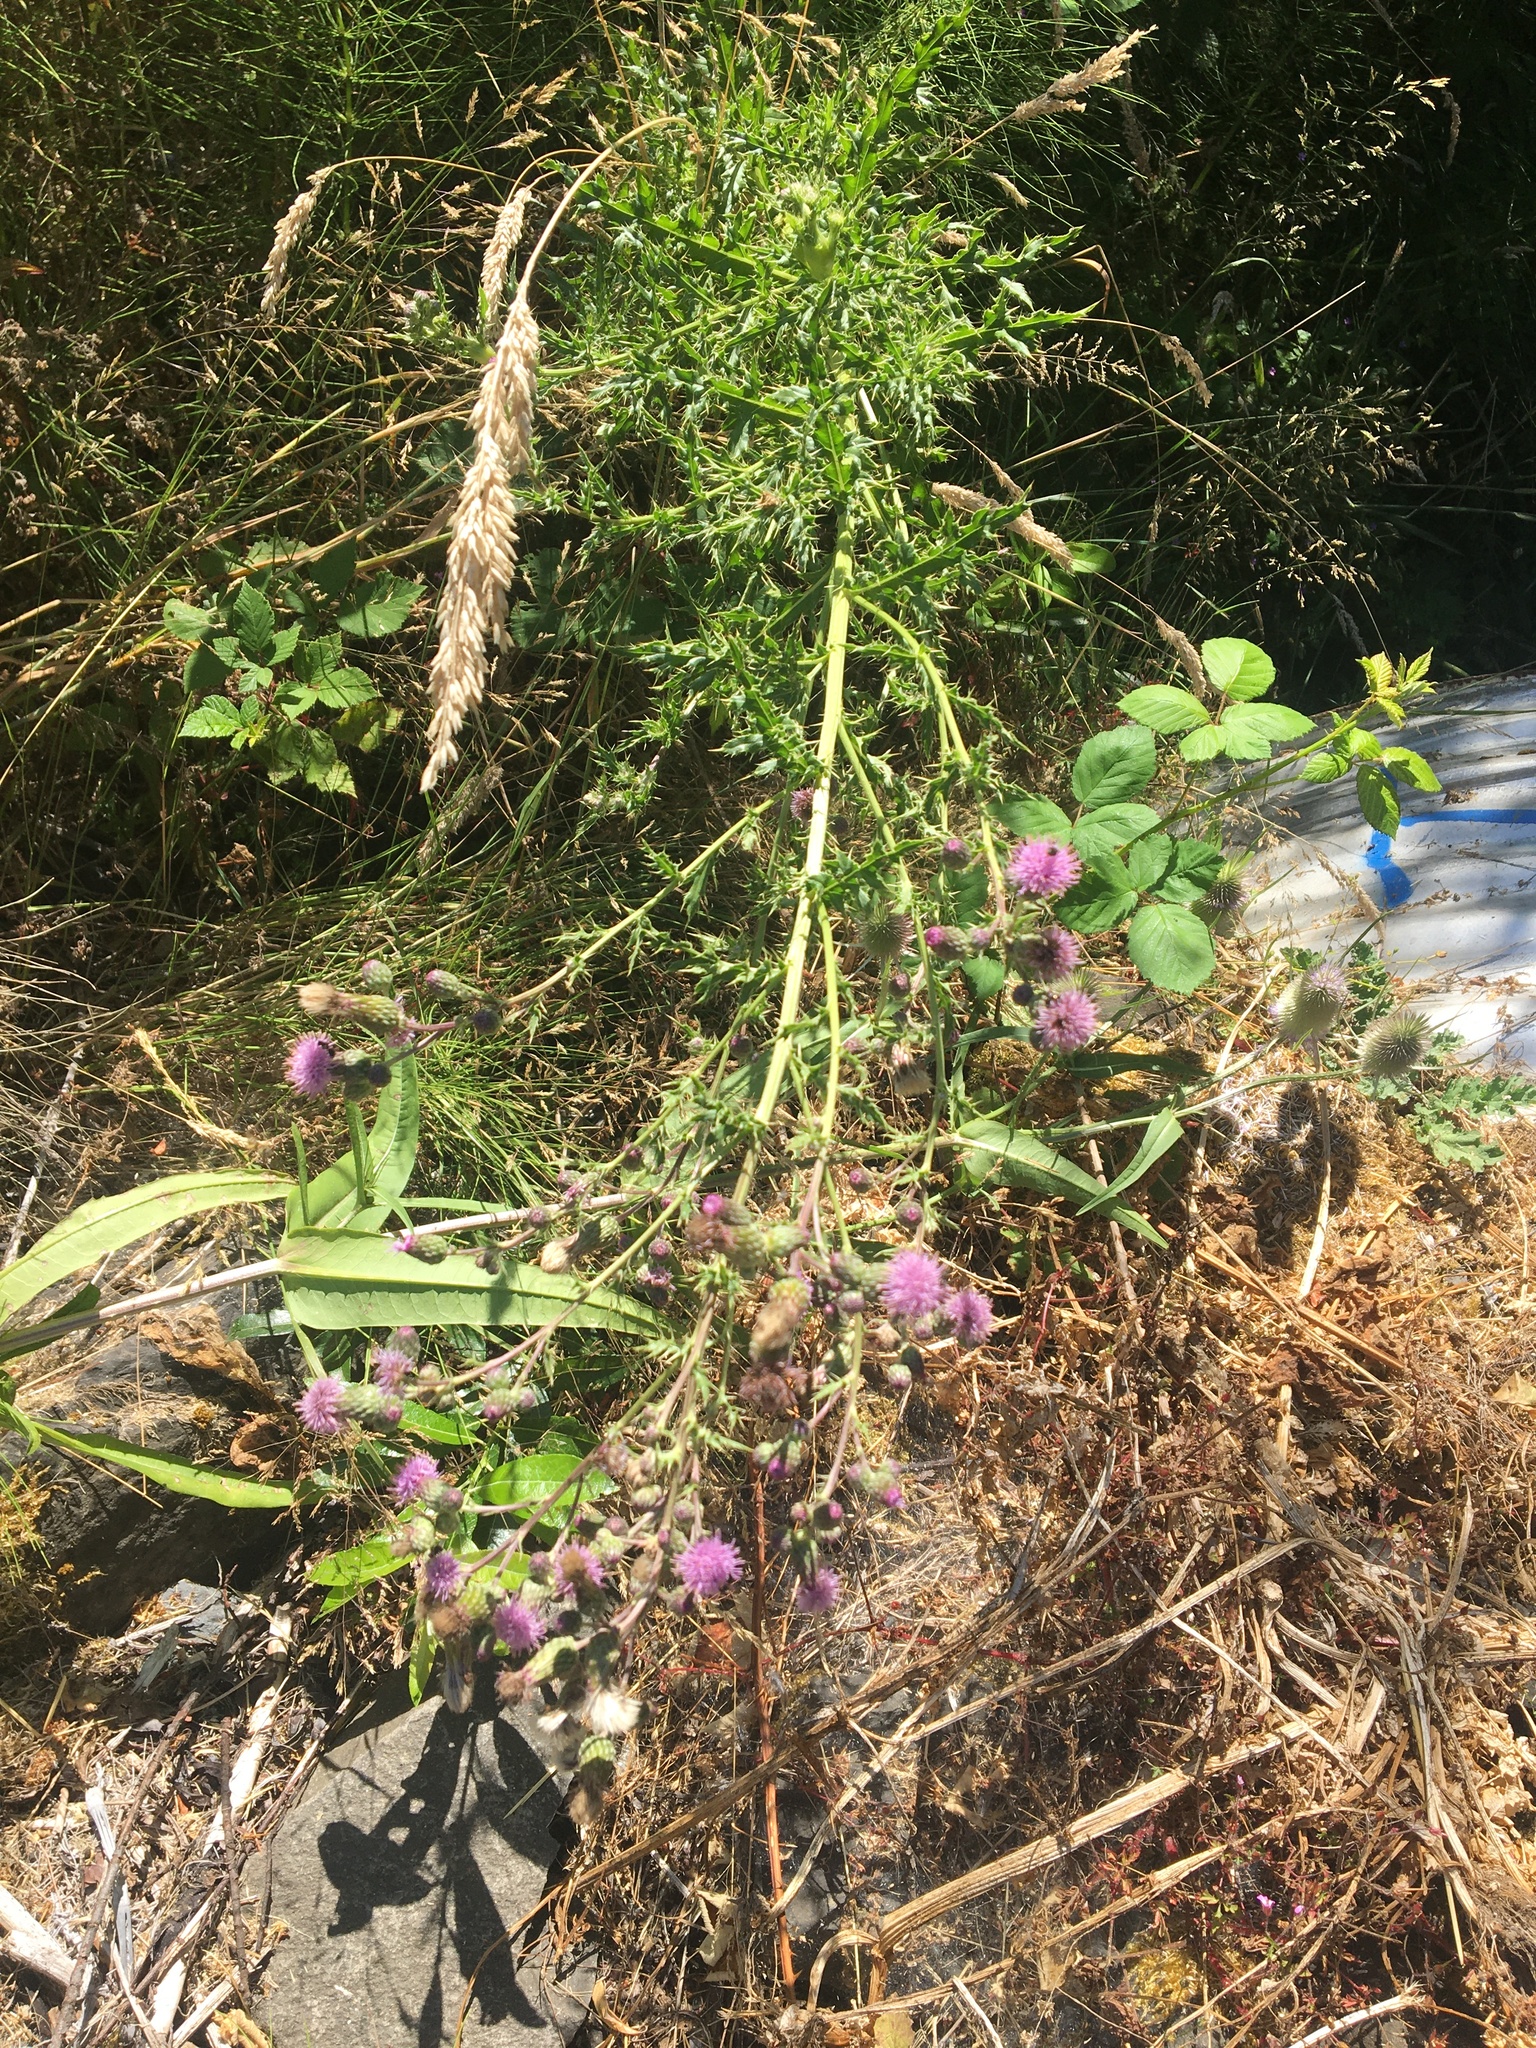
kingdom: Plantae
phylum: Tracheophyta
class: Magnoliopsida
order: Asterales
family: Asteraceae
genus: Cirsium
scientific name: Cirsium arvense
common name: Creeping thistle
